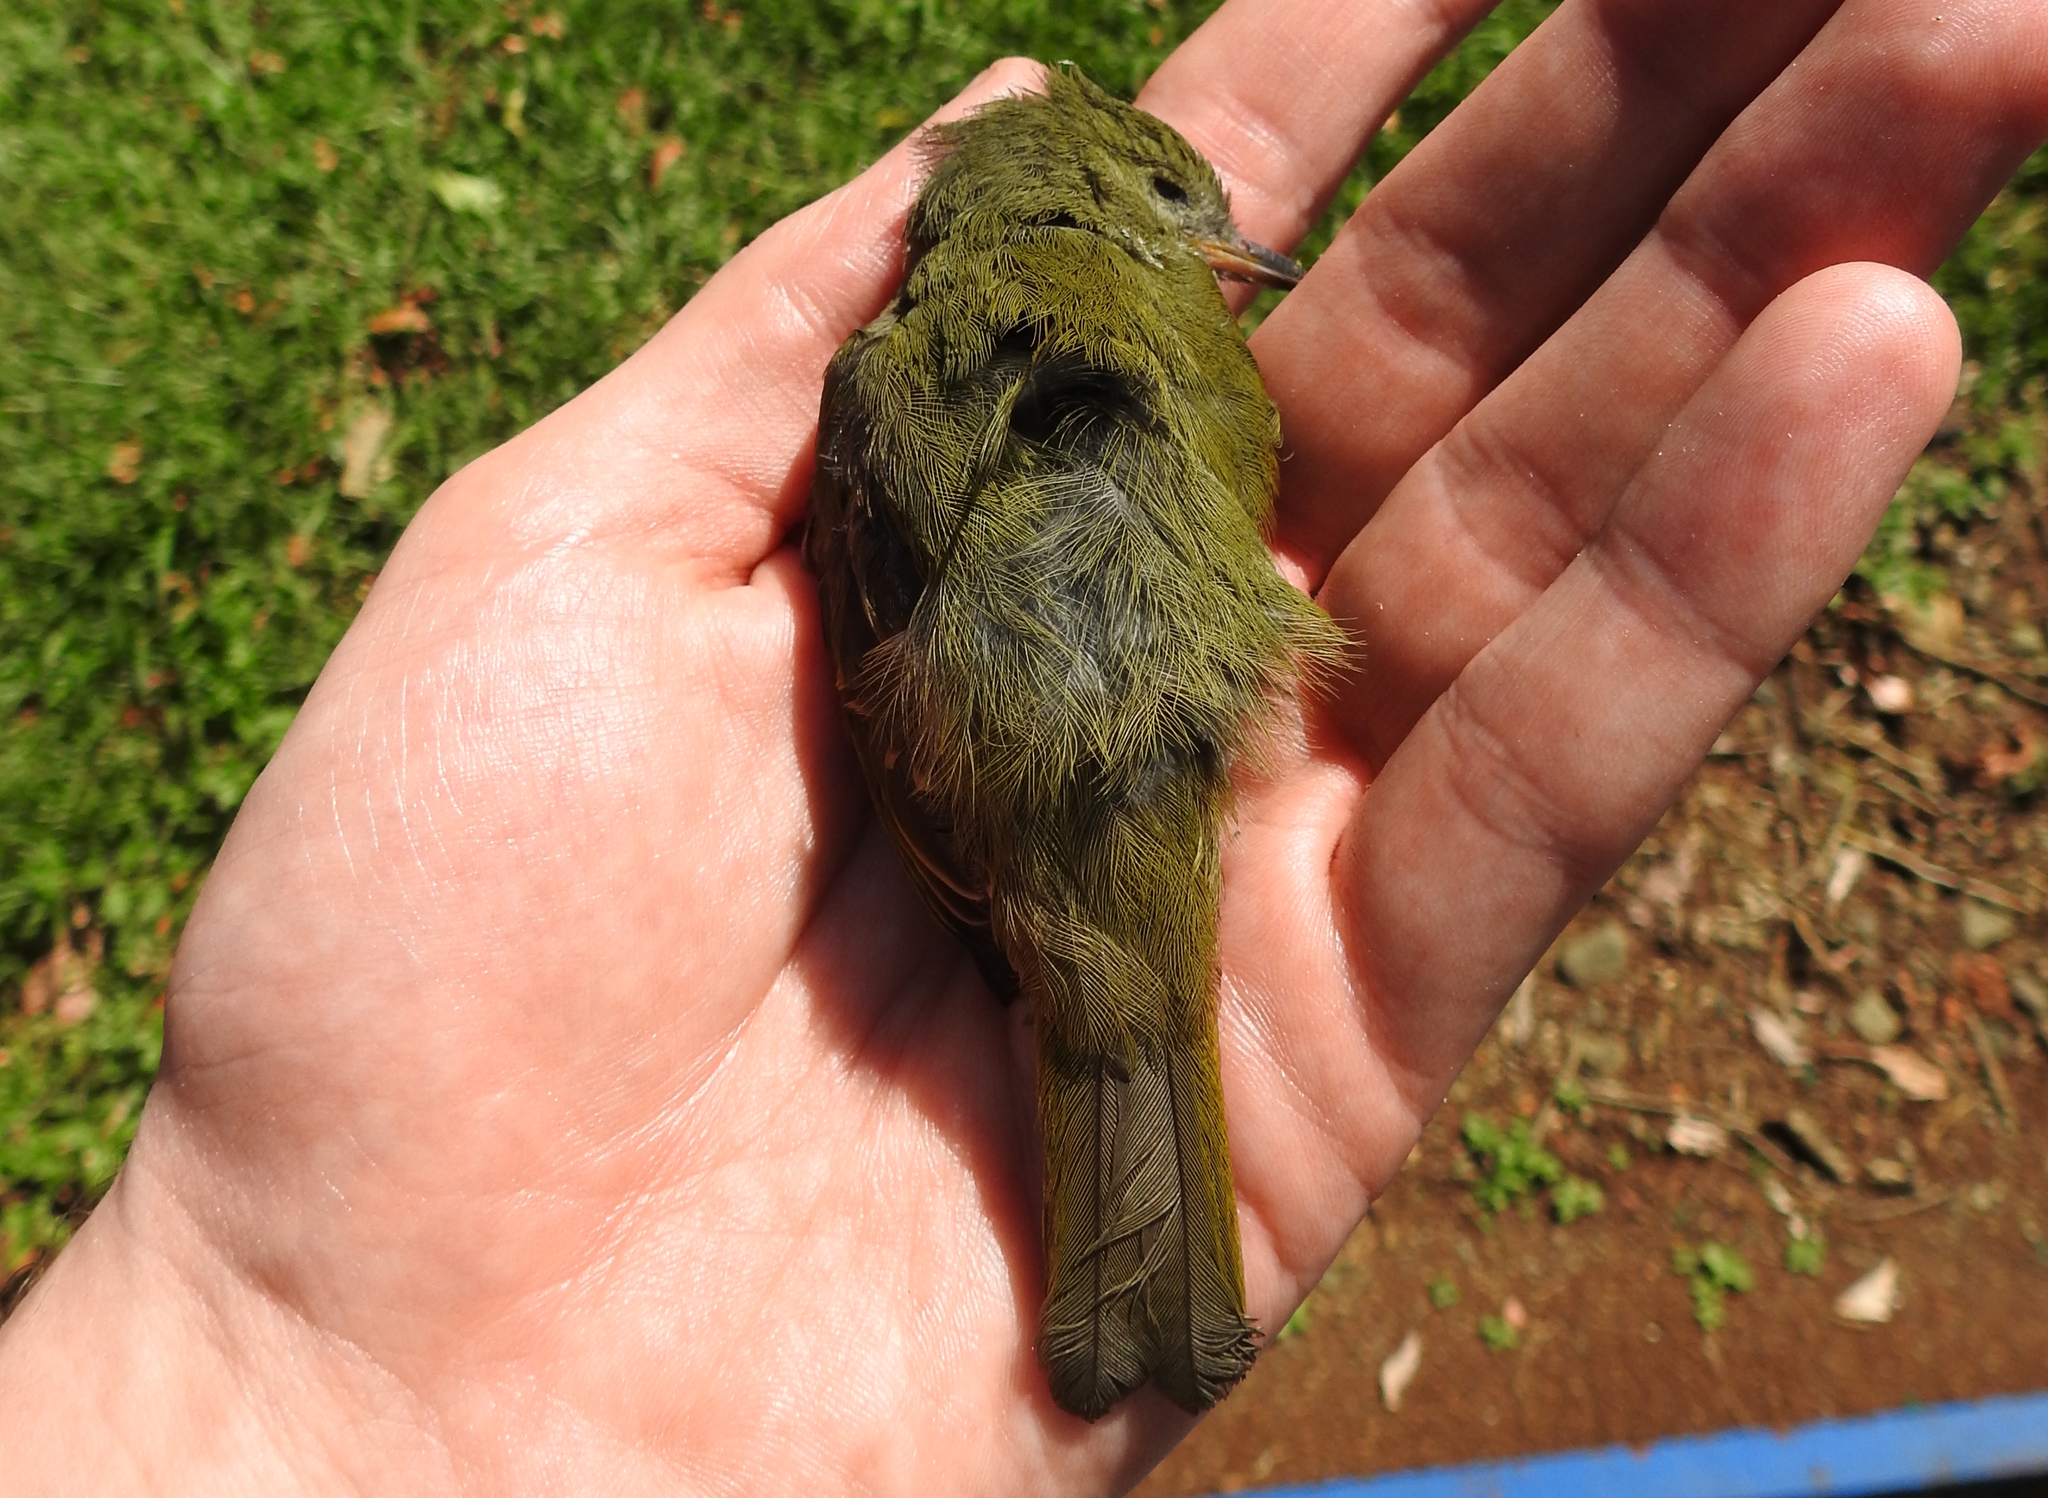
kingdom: Animalia
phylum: Chordata
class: Aves
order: Passeriformes
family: Tyrannidae
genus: Mionectes
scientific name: Mionectes oleagineus
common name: Ochre-bellied flycatcher
